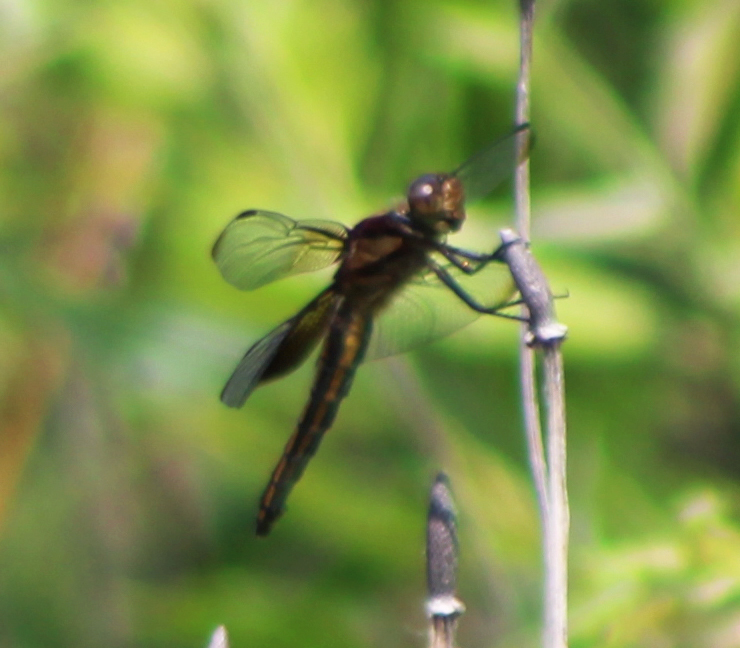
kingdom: Animalia
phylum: Arthropoda
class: Insecta
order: Odonata
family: Libellulidae
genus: Libellula
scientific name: Libellula luctuosa
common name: Widow skimmer
